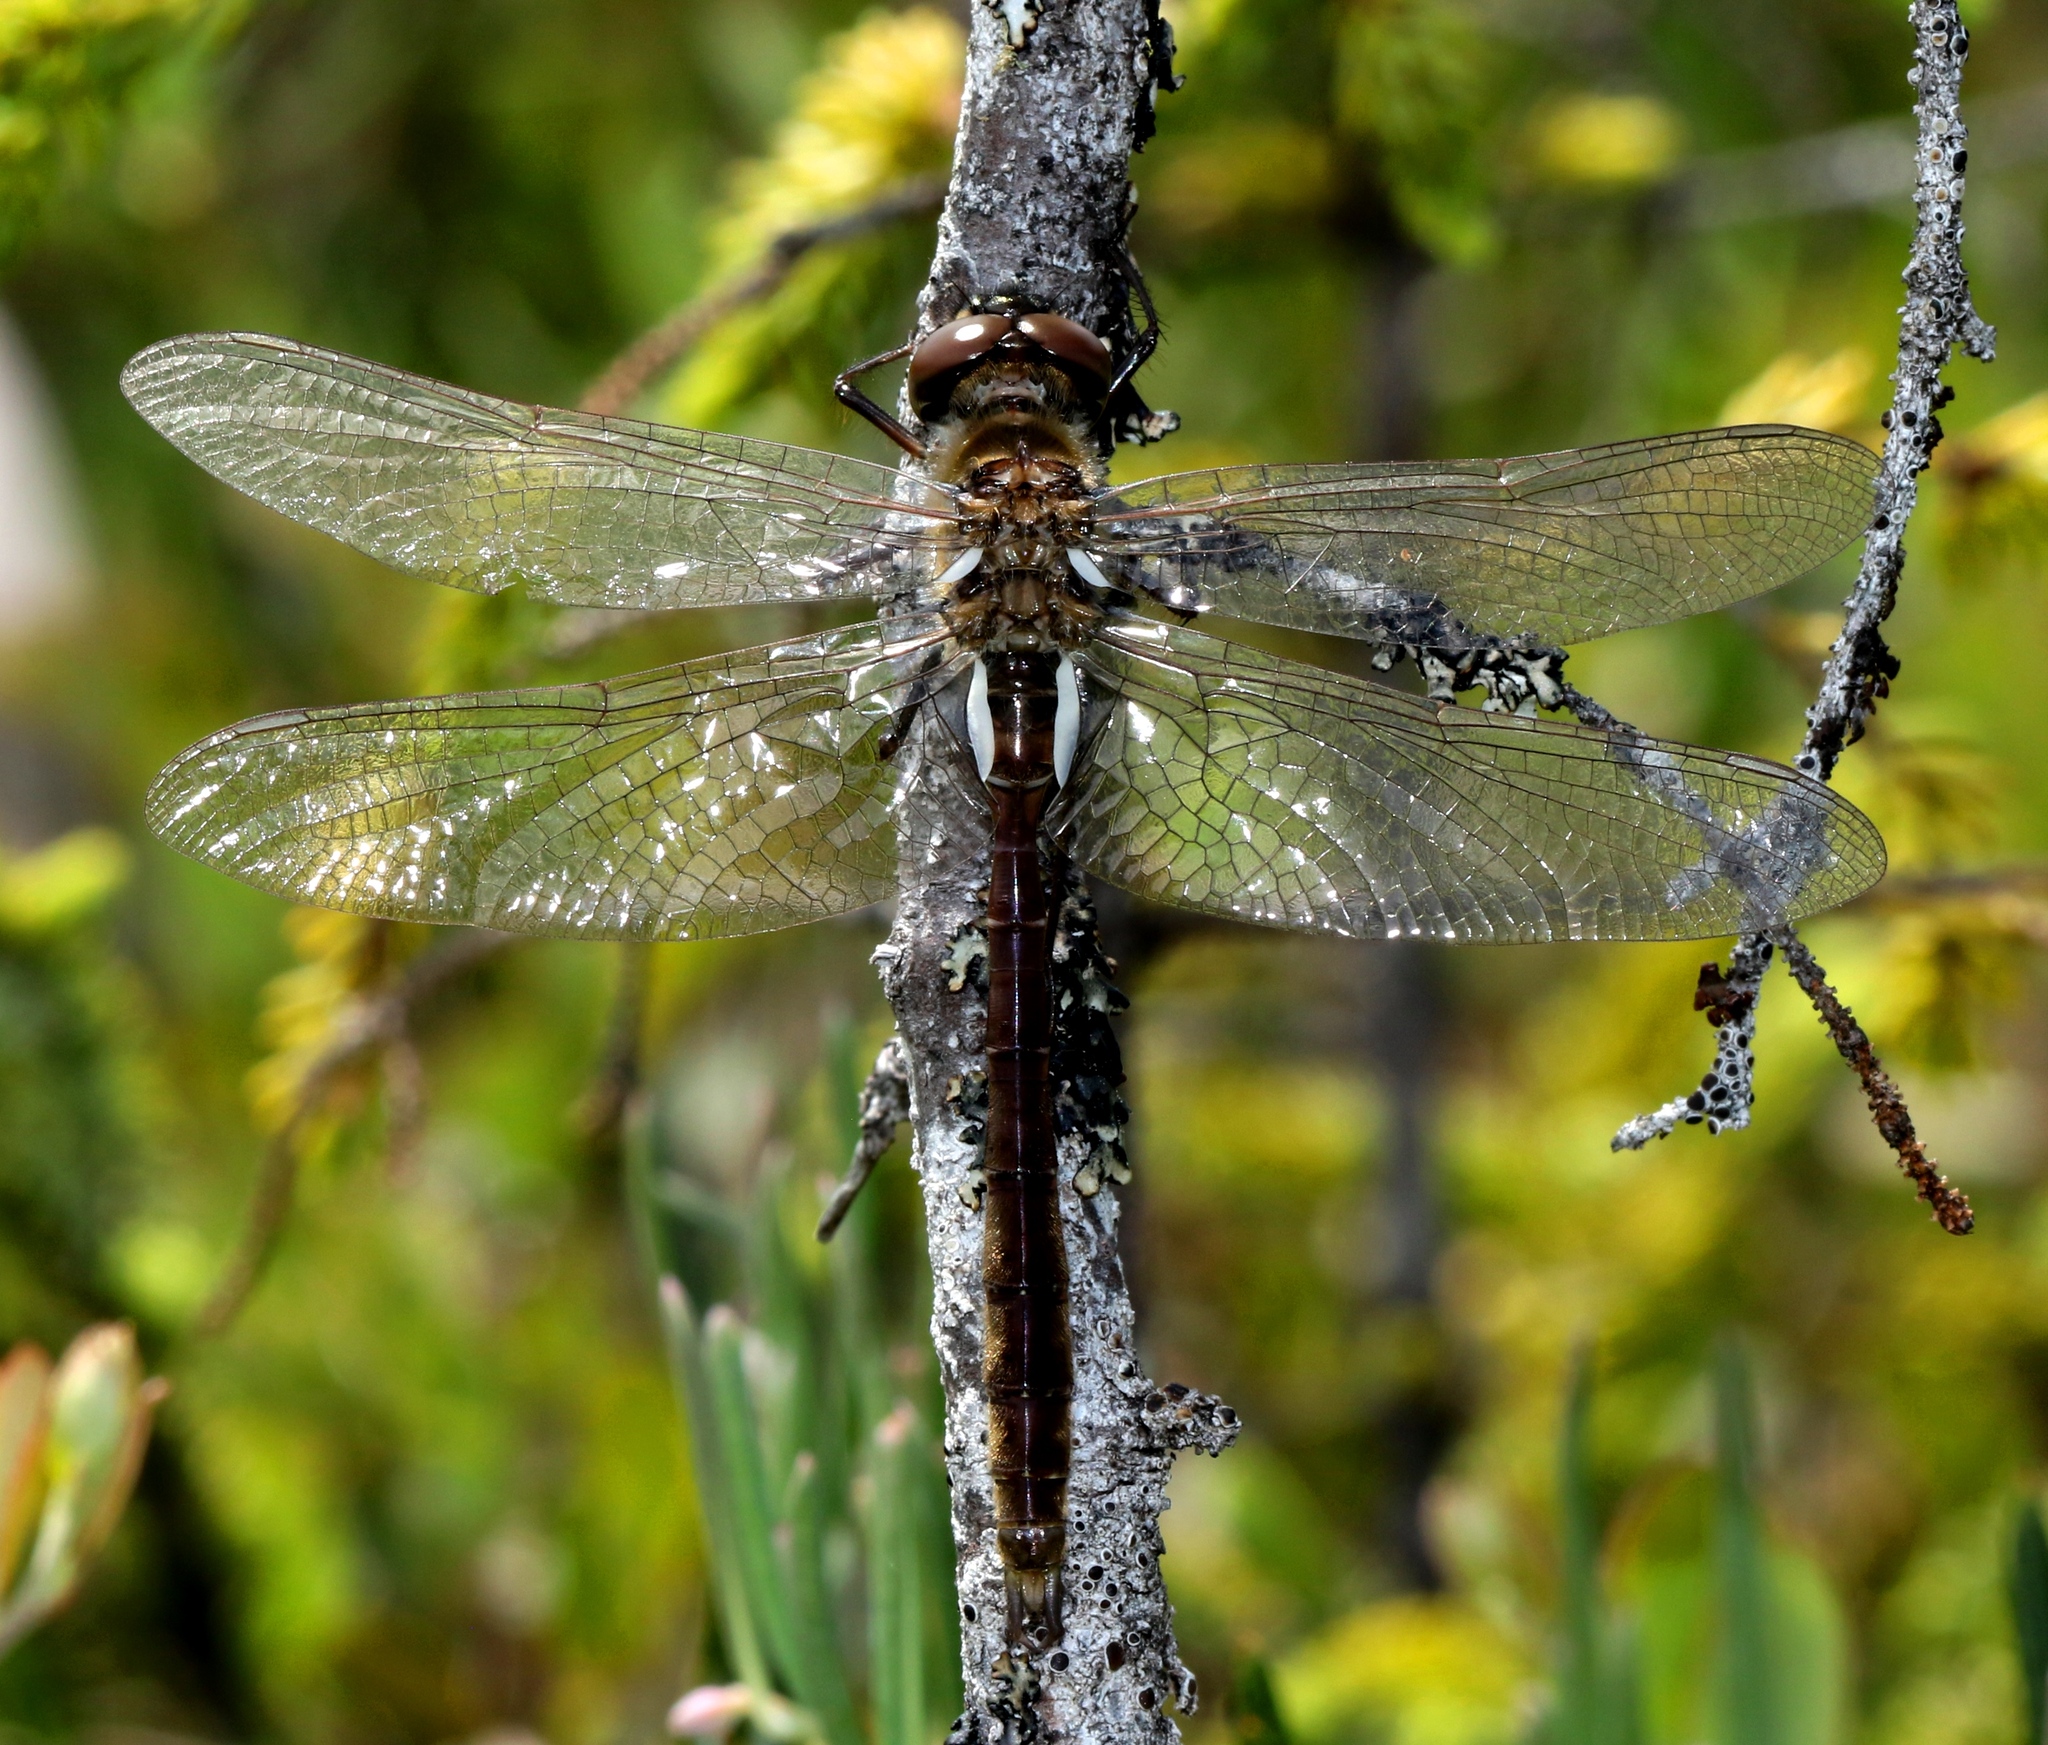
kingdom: Animalia
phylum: Arthropoda
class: Insecta
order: Odonata
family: Corduliidae
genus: Somatochlora
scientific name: Somatochlora septentrionalis
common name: Muskeg emerald
